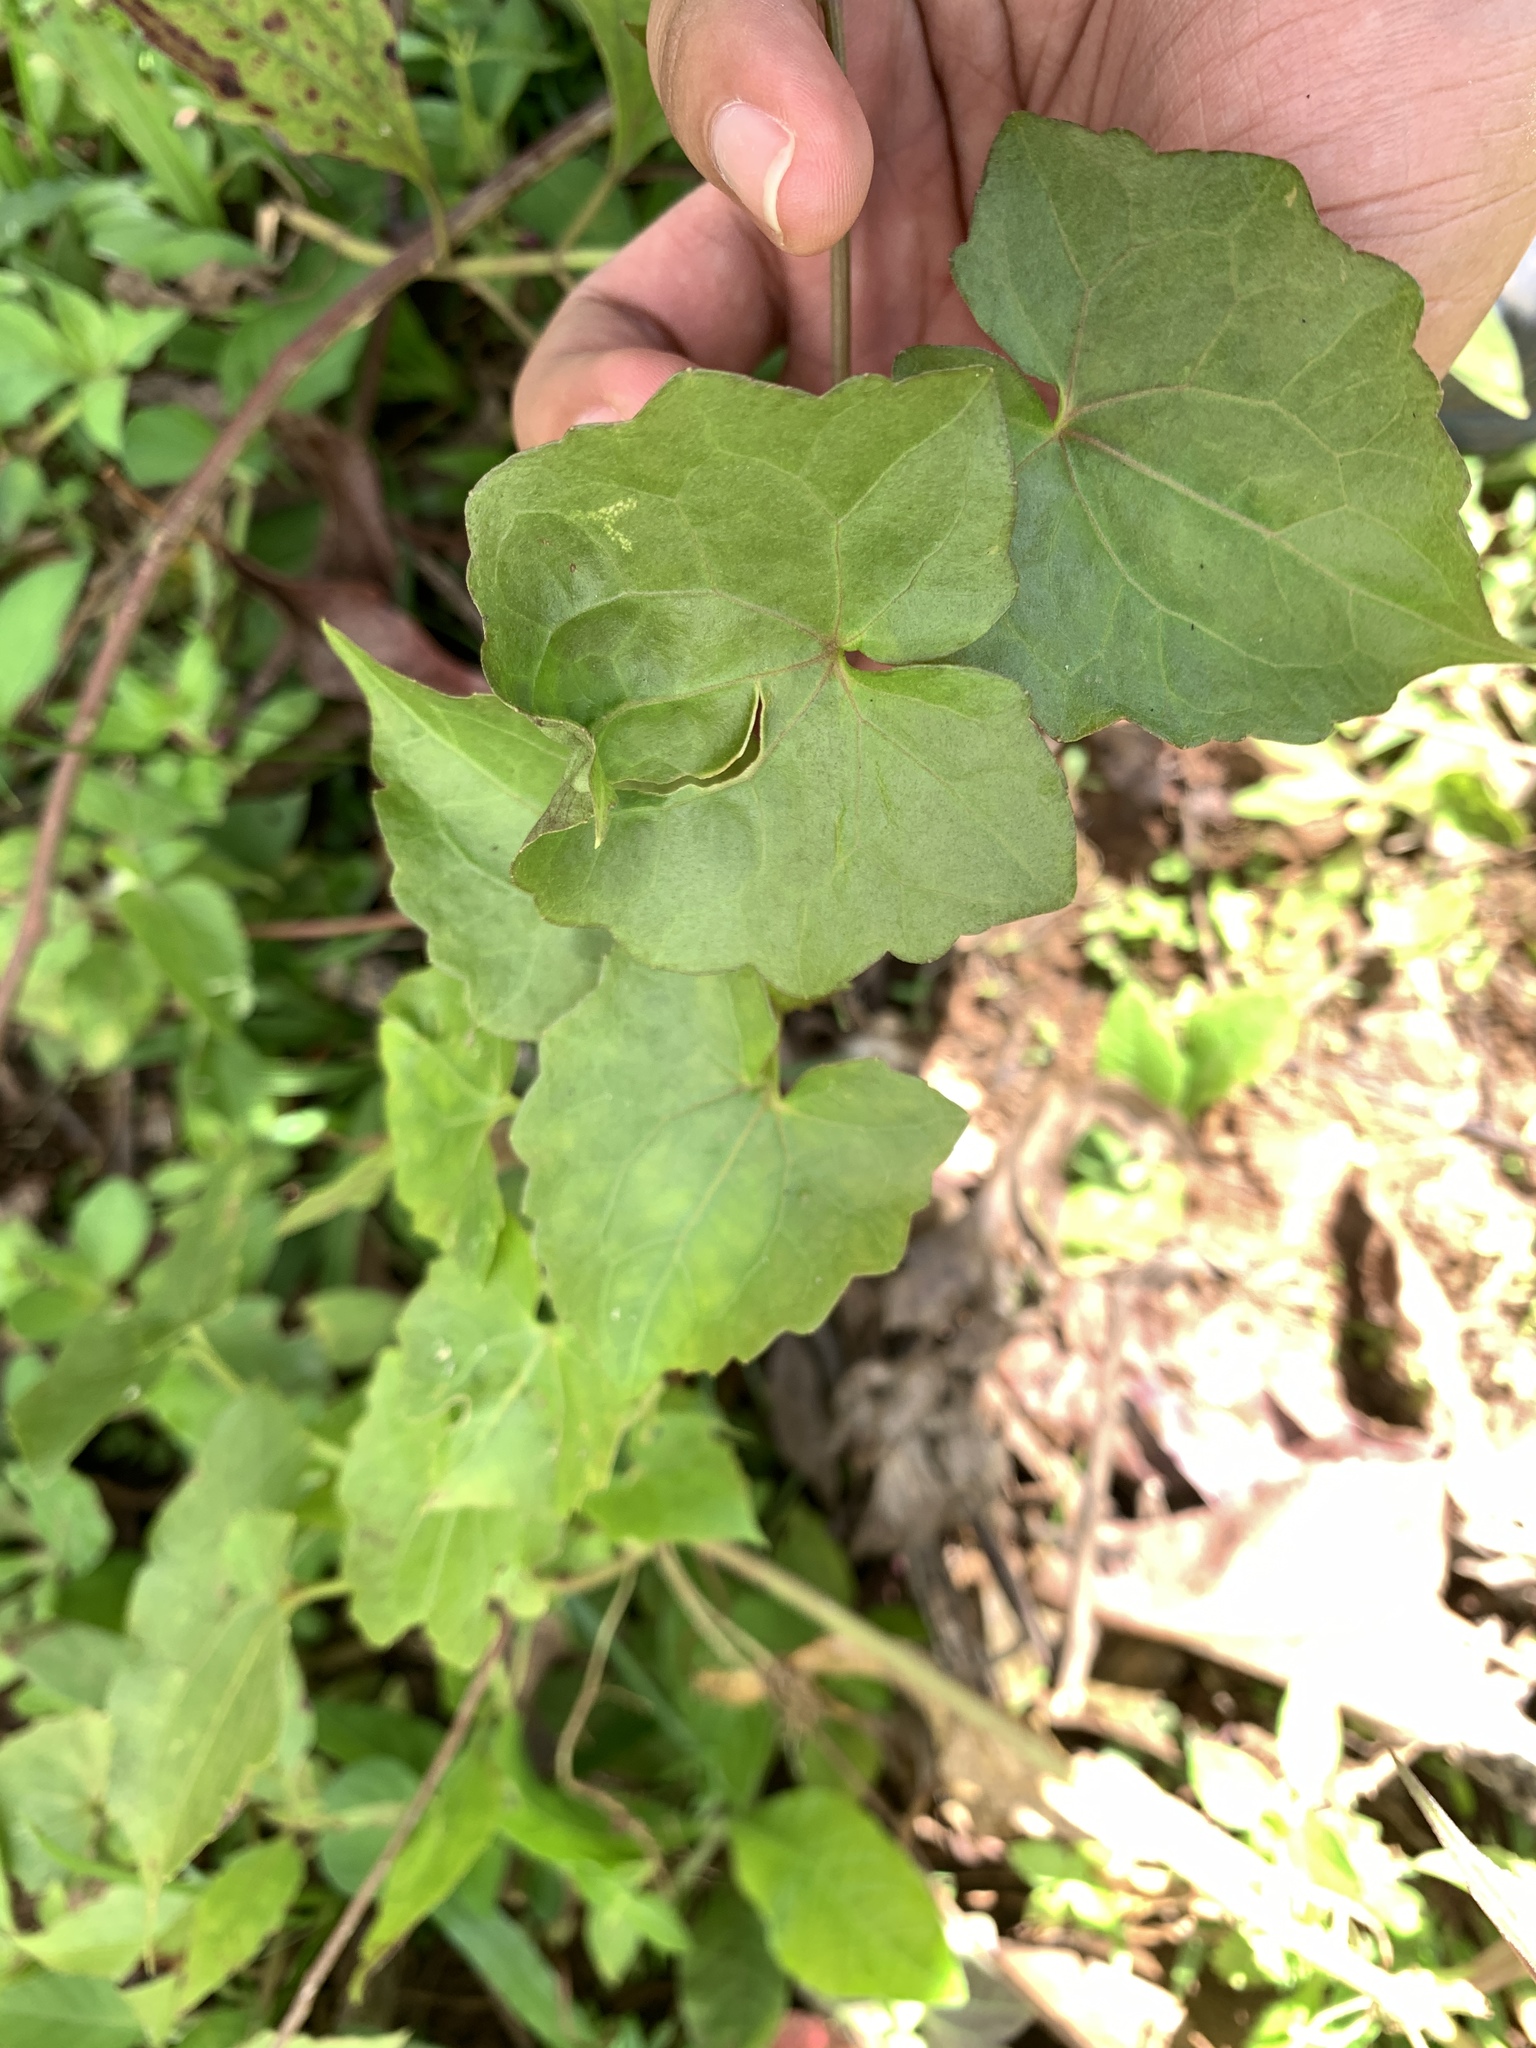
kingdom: Plantae
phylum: Tracheophyta
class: Magnoliopsida
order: Asterales
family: Asteraceae
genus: Mikania
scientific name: Mikania micrantha
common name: Mile-a-minute
